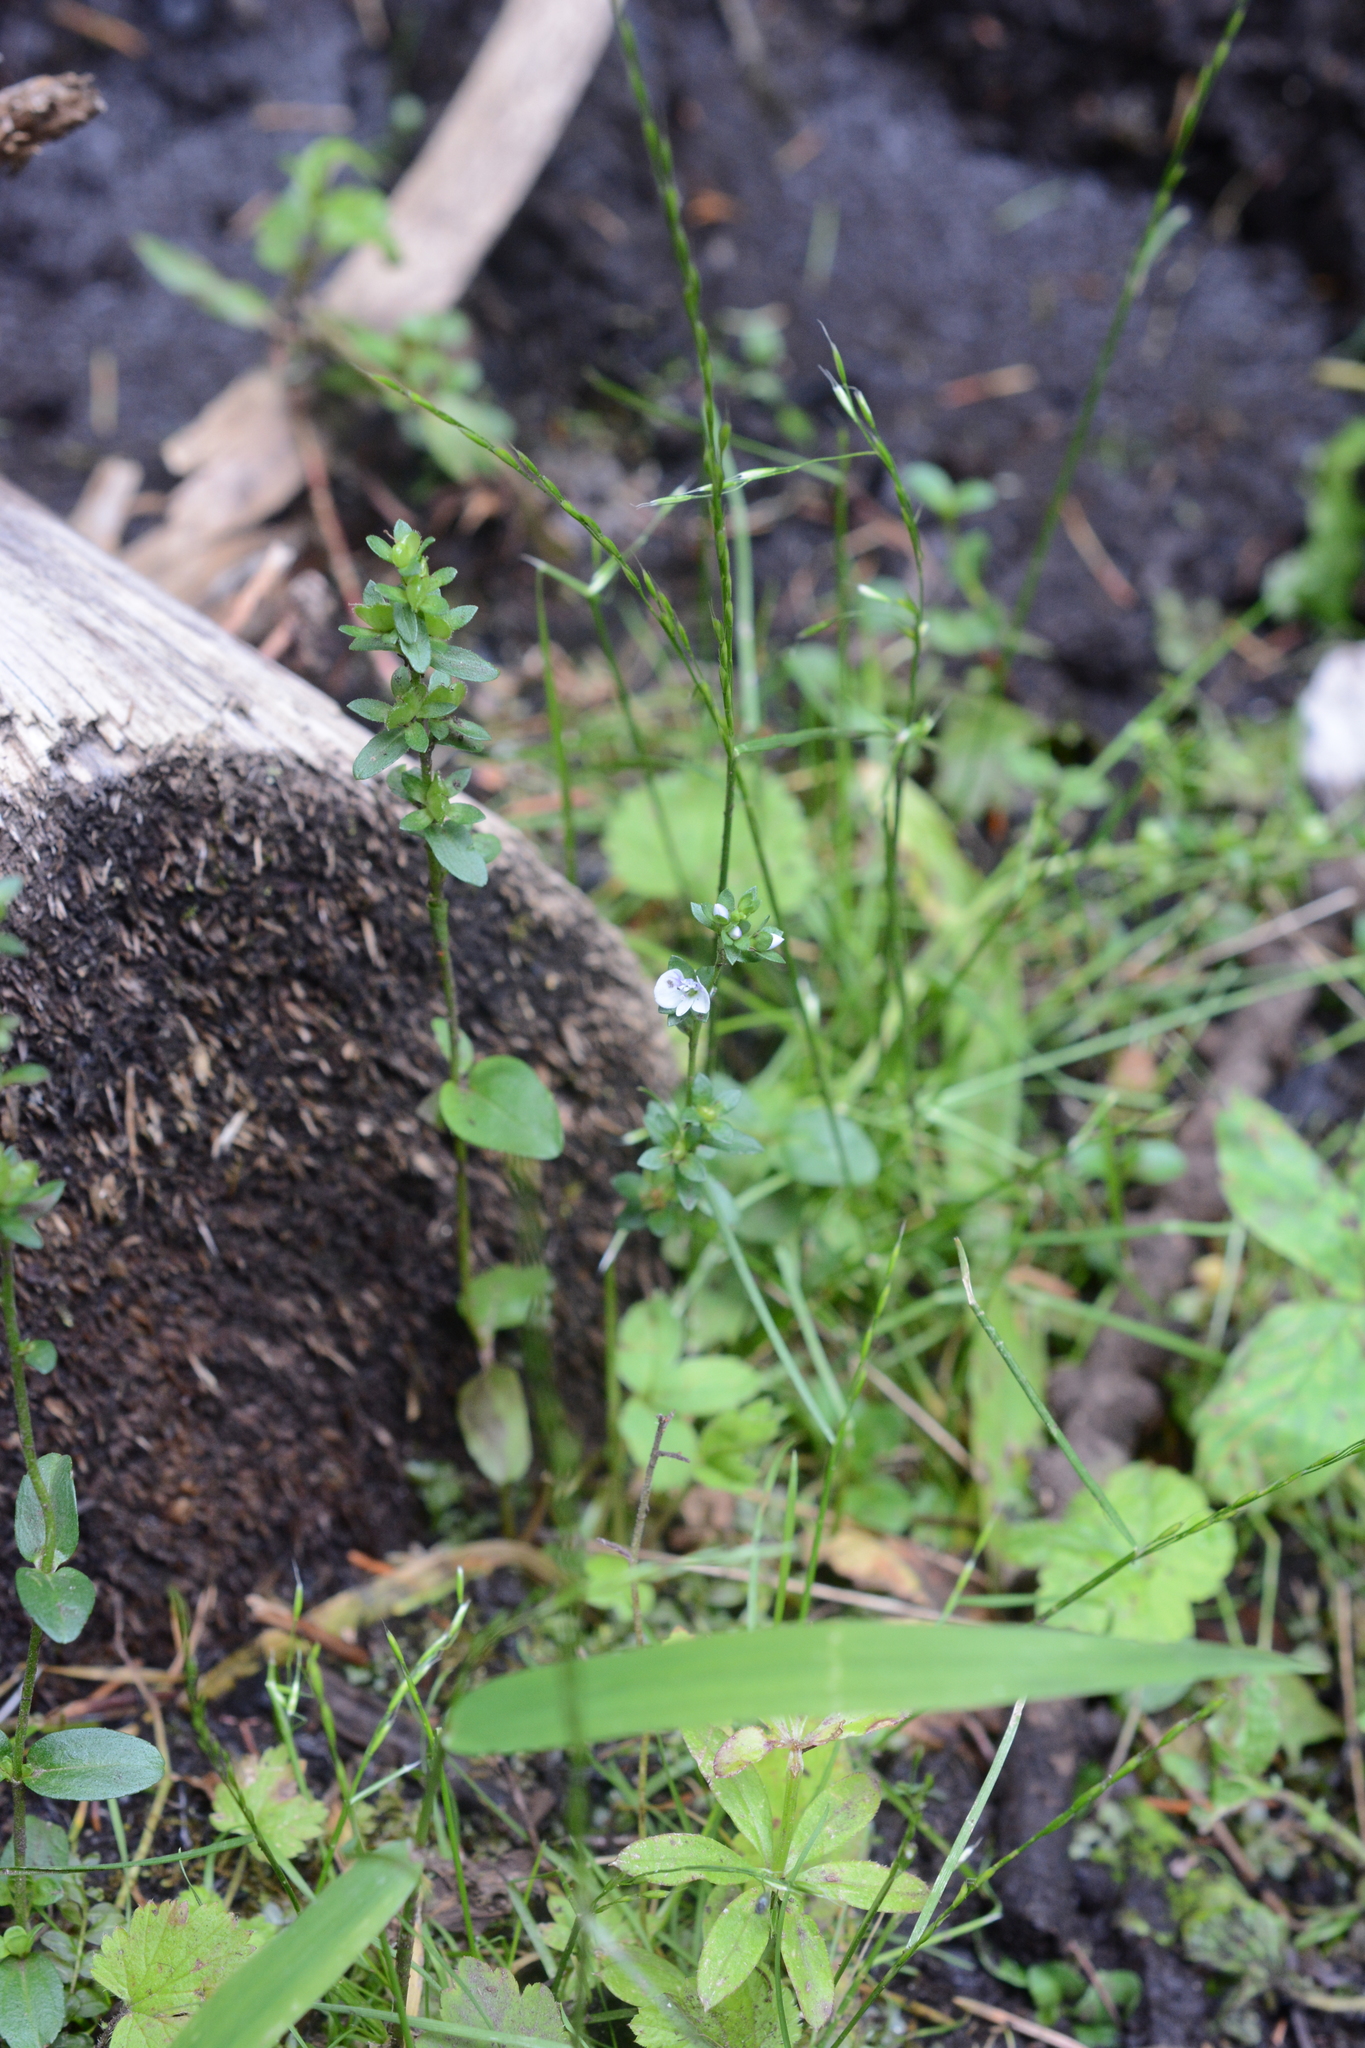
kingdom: Plantae
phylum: Tracheophyta
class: Magnoliopsida
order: Lamiales
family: Plantaginaceae
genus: Veronica
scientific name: Veronica serpyllifolia
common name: Thyme-leaved speedwell
